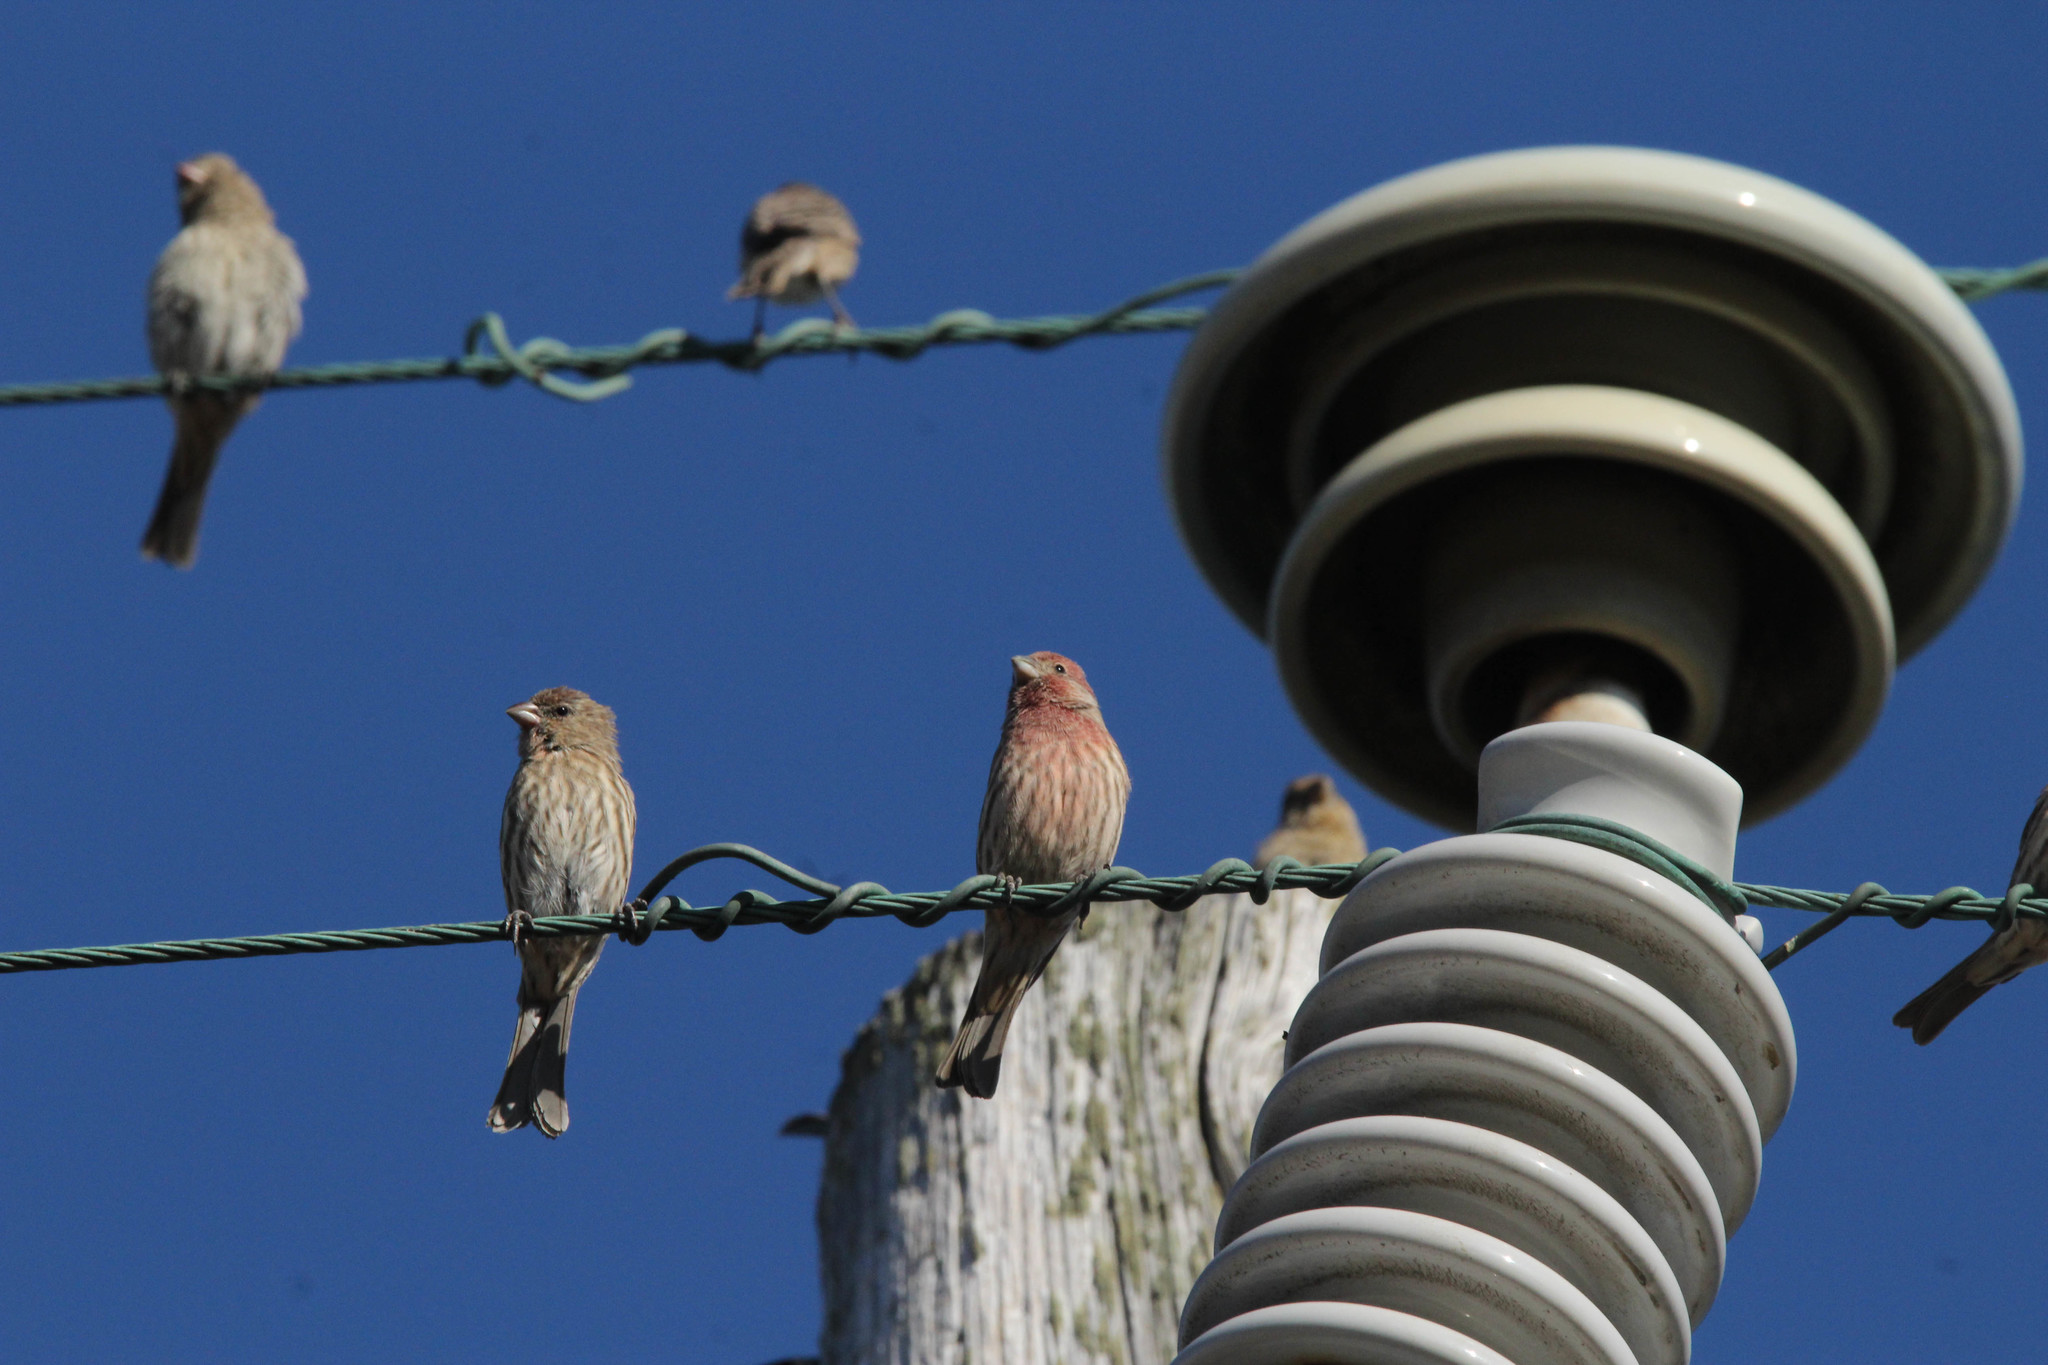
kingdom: Animalia
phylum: Chordata
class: Aves
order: Passeriformes
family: Fringillidae
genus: Haemorhous
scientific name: Haemorhous mexicanus
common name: House finch
